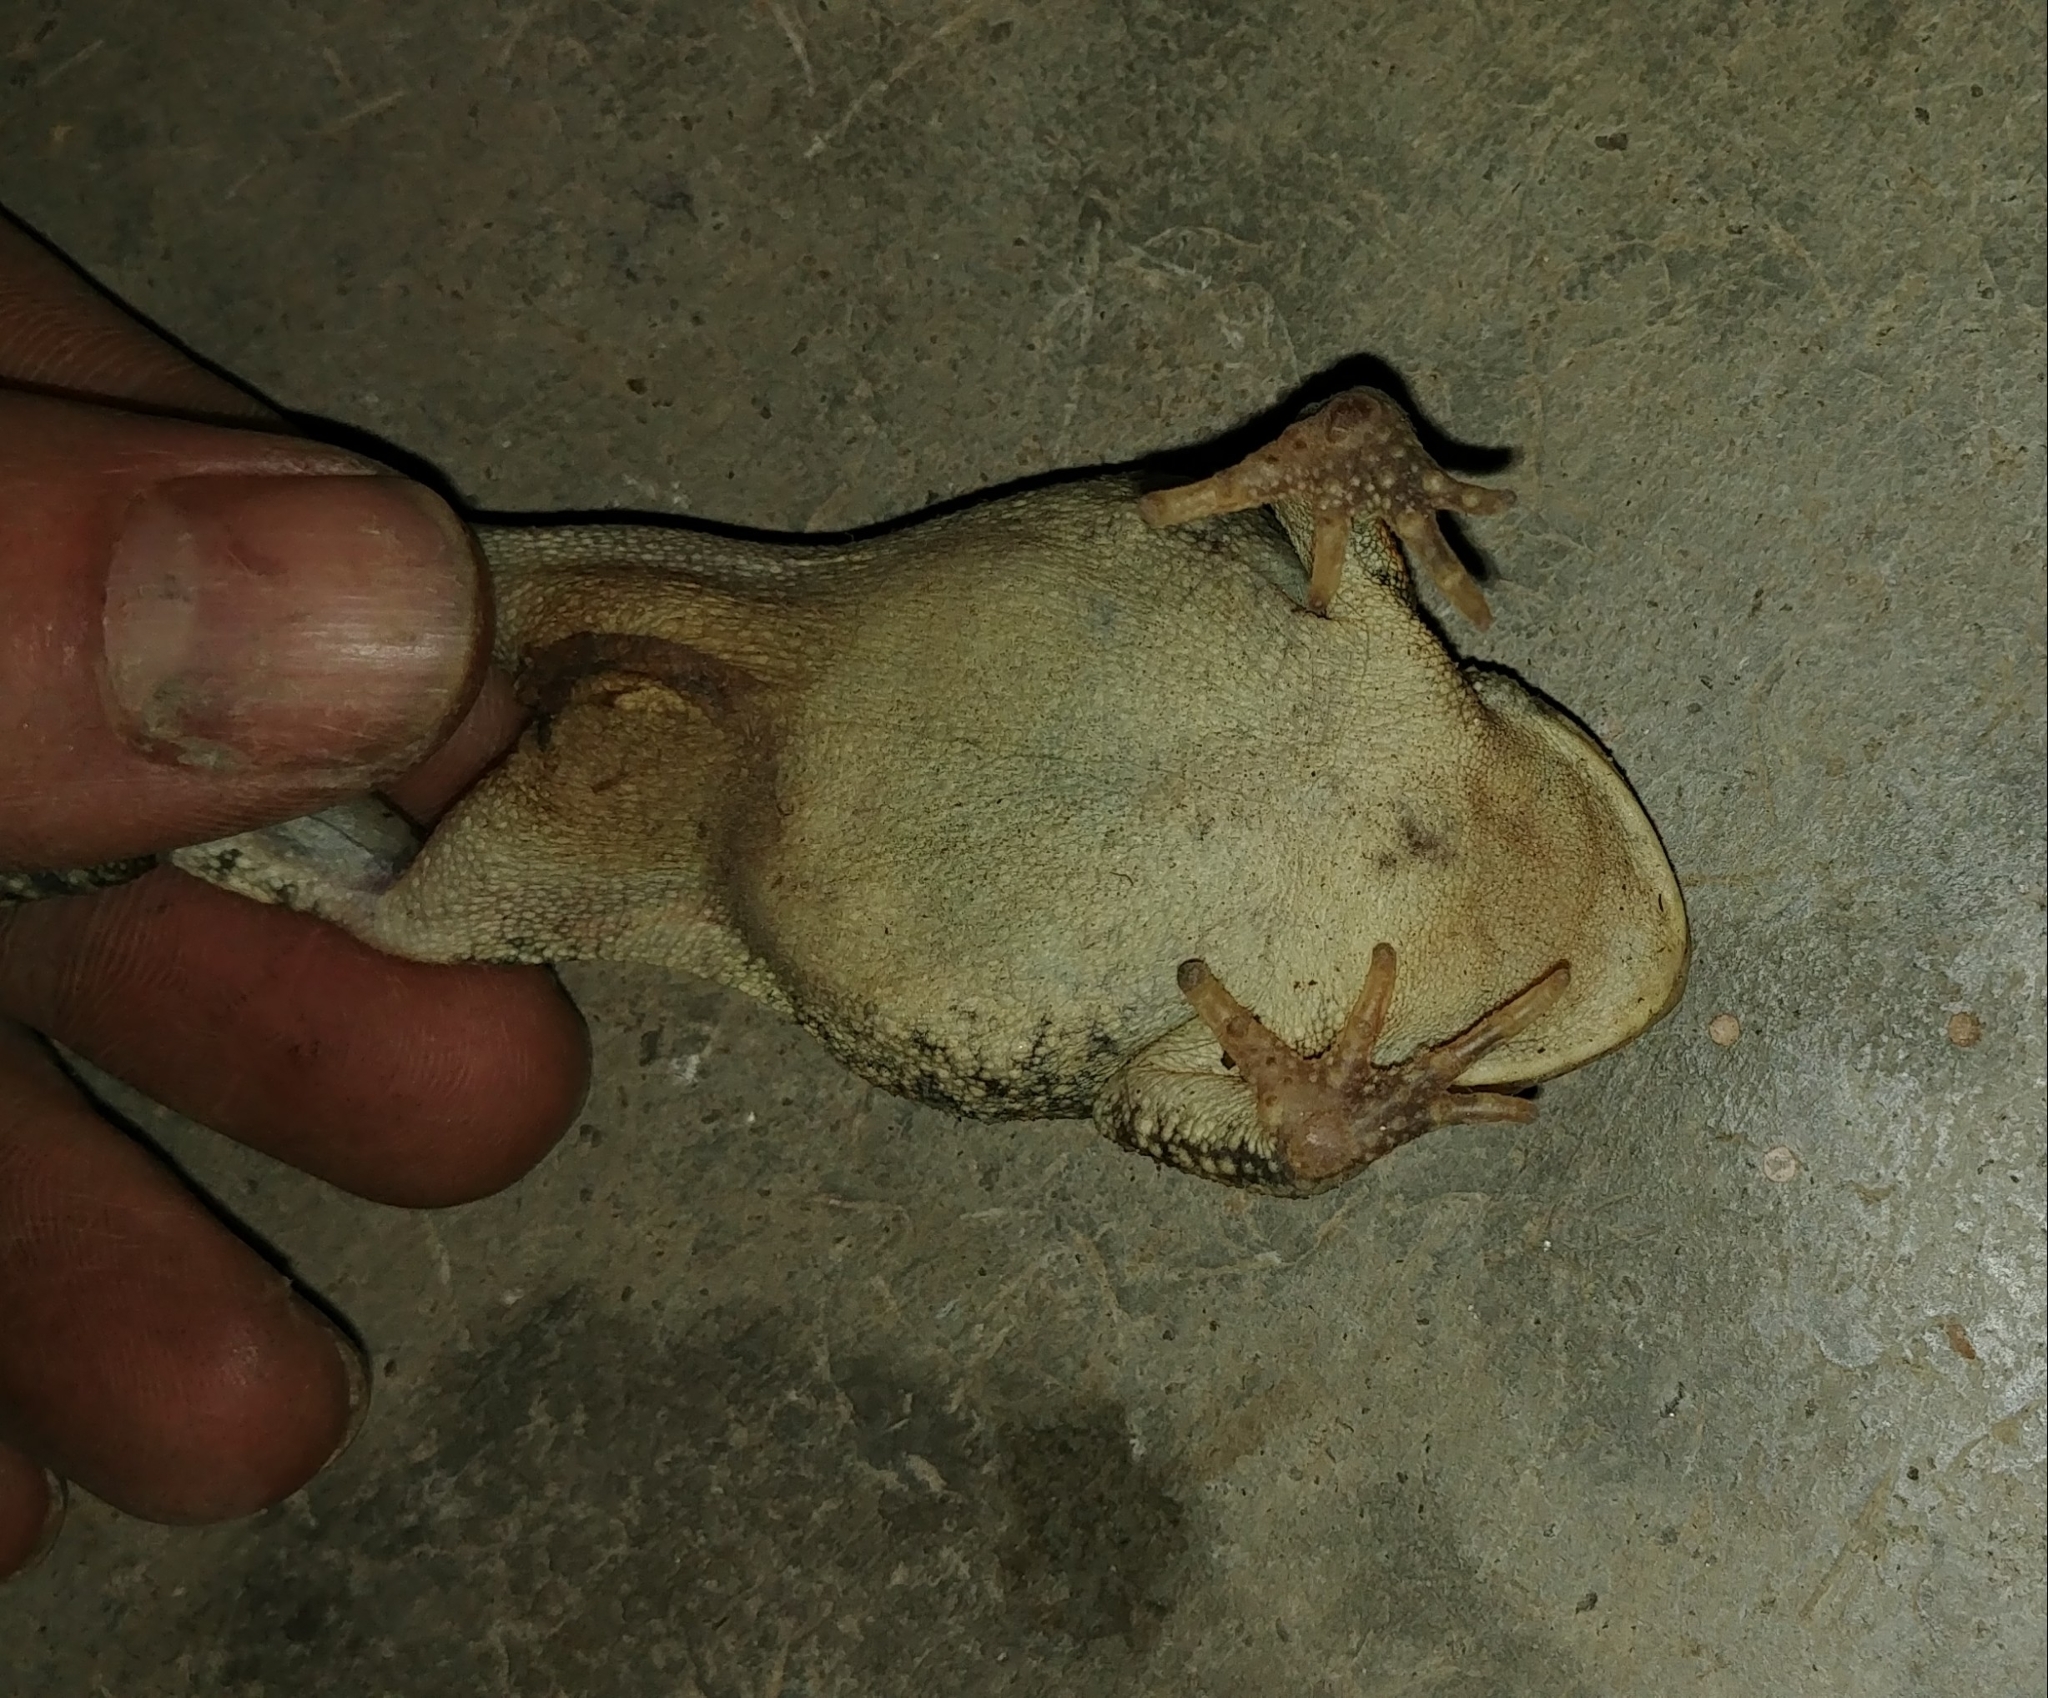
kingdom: Animalia
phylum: Chordata
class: Amphibia
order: Anura
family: Bufonidae
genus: Anaxyrus
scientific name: Anaxyrus fowleri
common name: Fowler's toad
